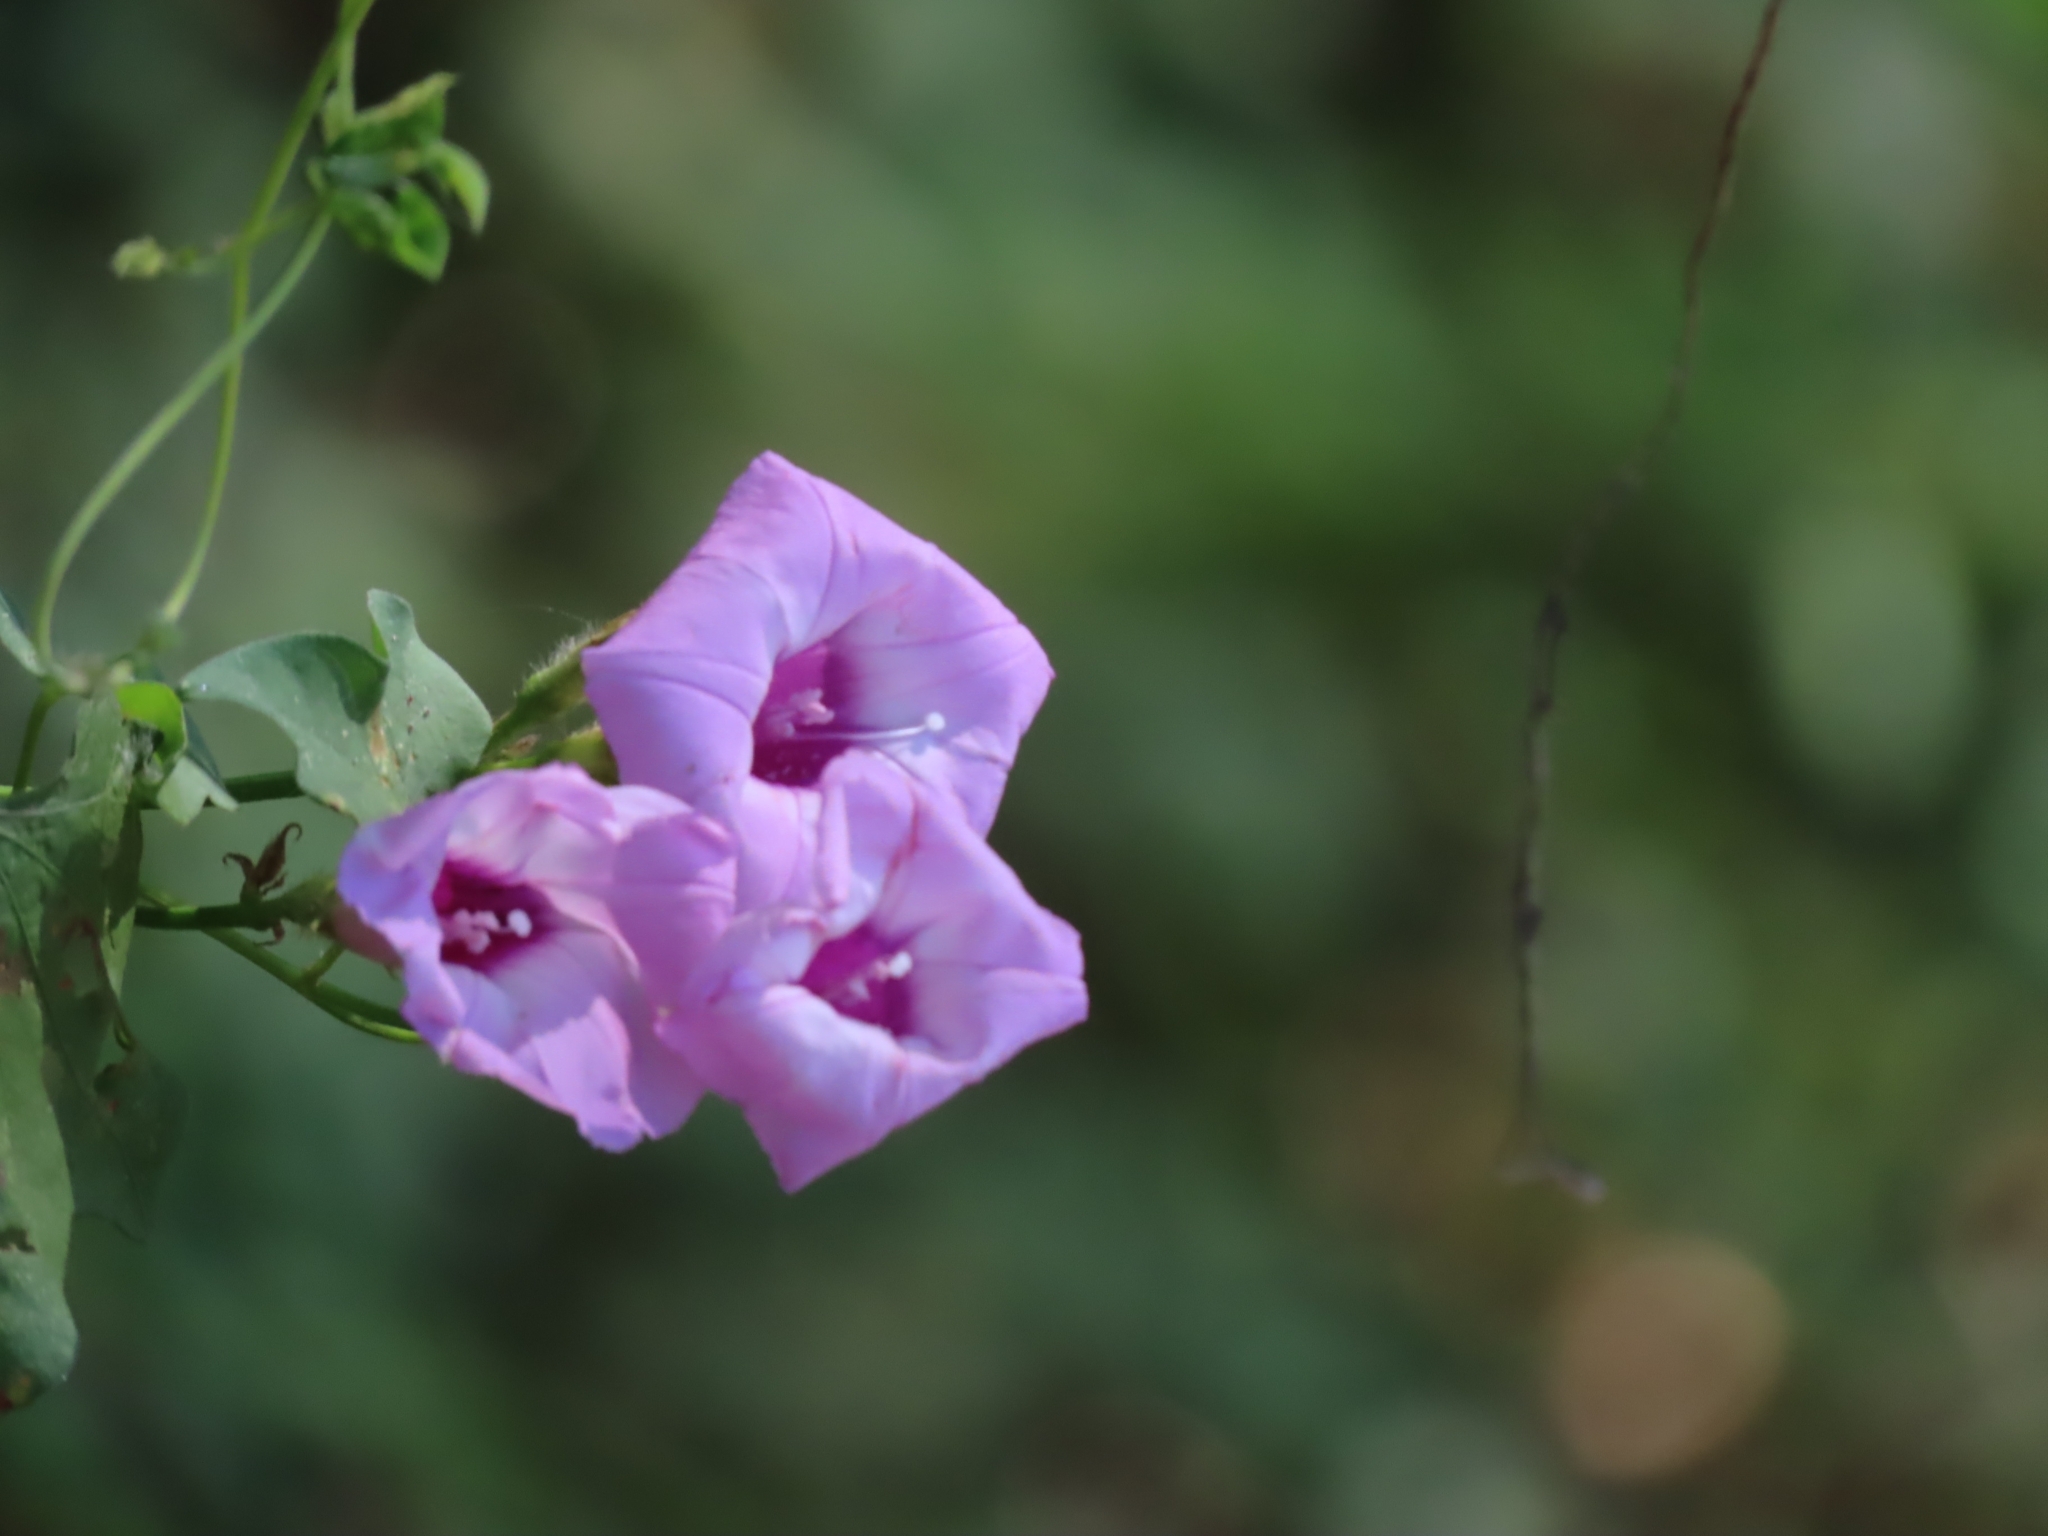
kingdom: Plantae
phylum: Tracheophyta
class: Magnoliopsida
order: Solanales
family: Convolvulaceae
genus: Ipomoea
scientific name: Ipomoea cordatotriloba
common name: Cotton morning glory
